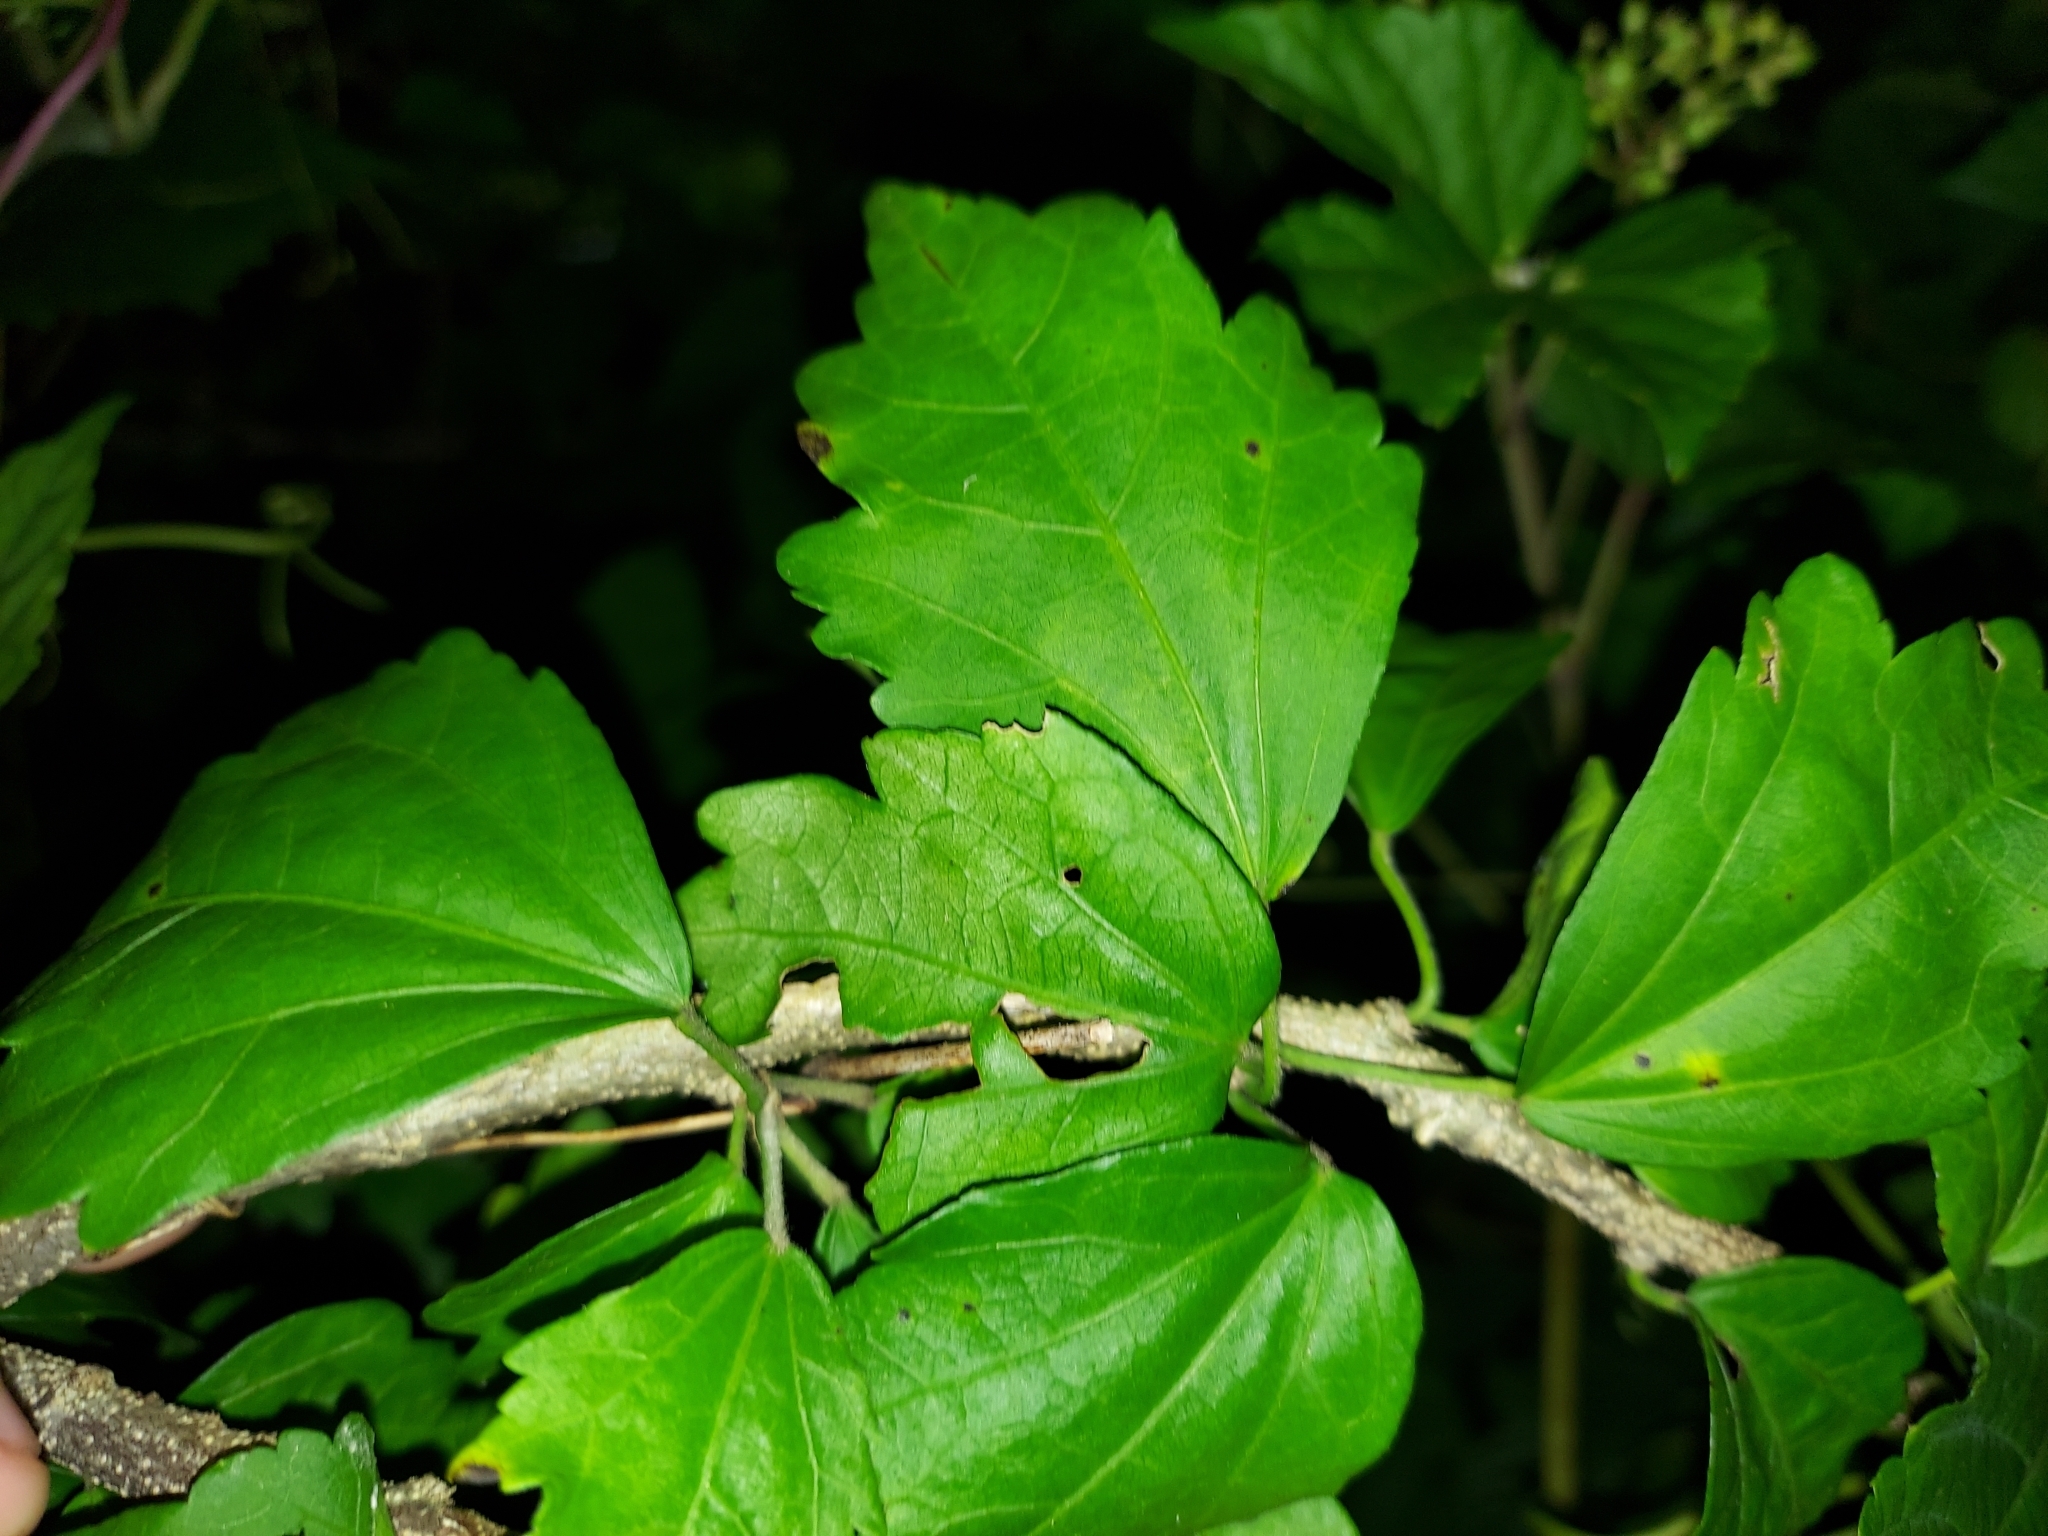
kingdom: Plantae
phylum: Tracheophyta
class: Magnoliopsida
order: Malvales
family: Malvaceae
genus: Hibiscus
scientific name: Hibiscus syriacus
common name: Syrian ketmia
